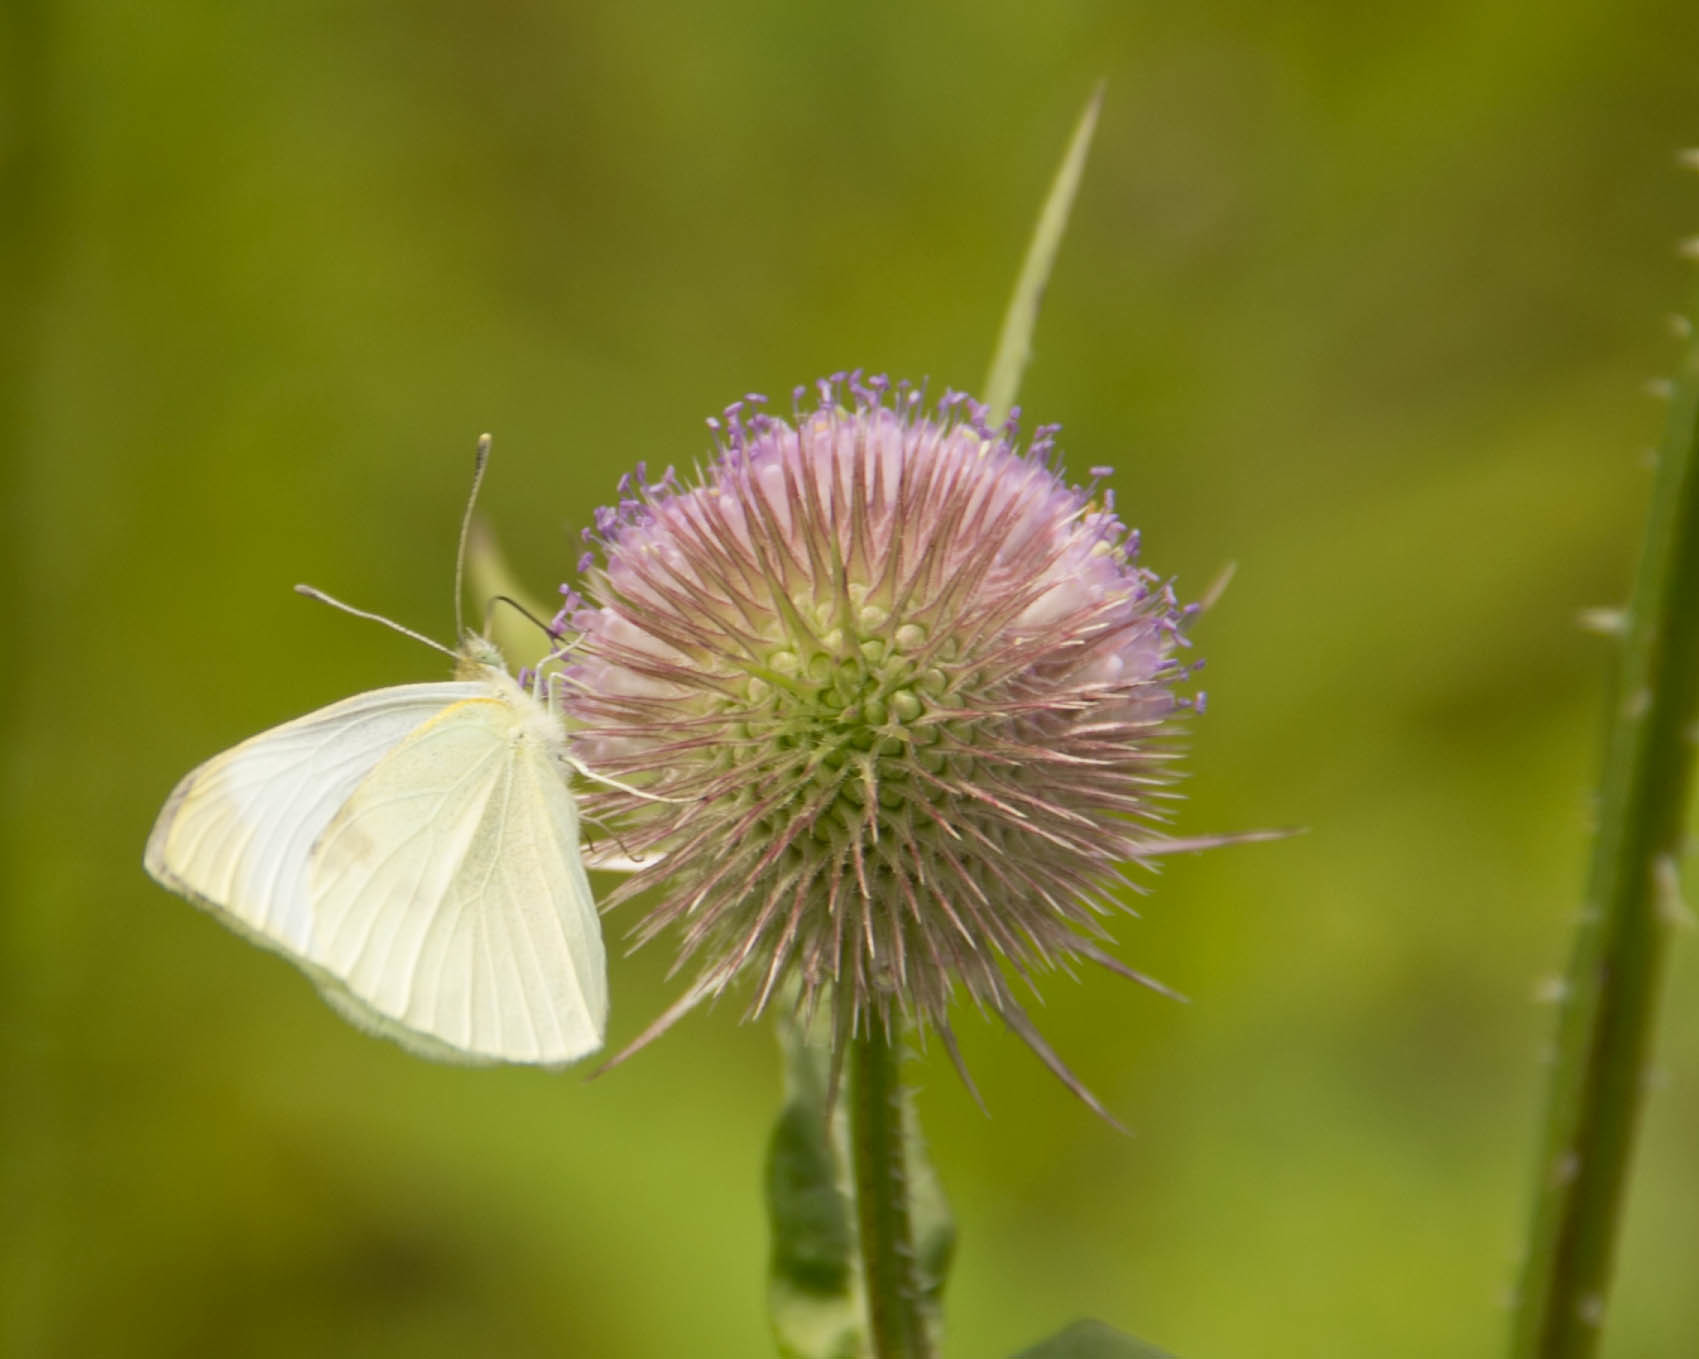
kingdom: Animalia
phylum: Arthropoda
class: Insecta
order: Lepidoptera
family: Pieridae
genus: Pieris
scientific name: Pieris rapae
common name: Small white
